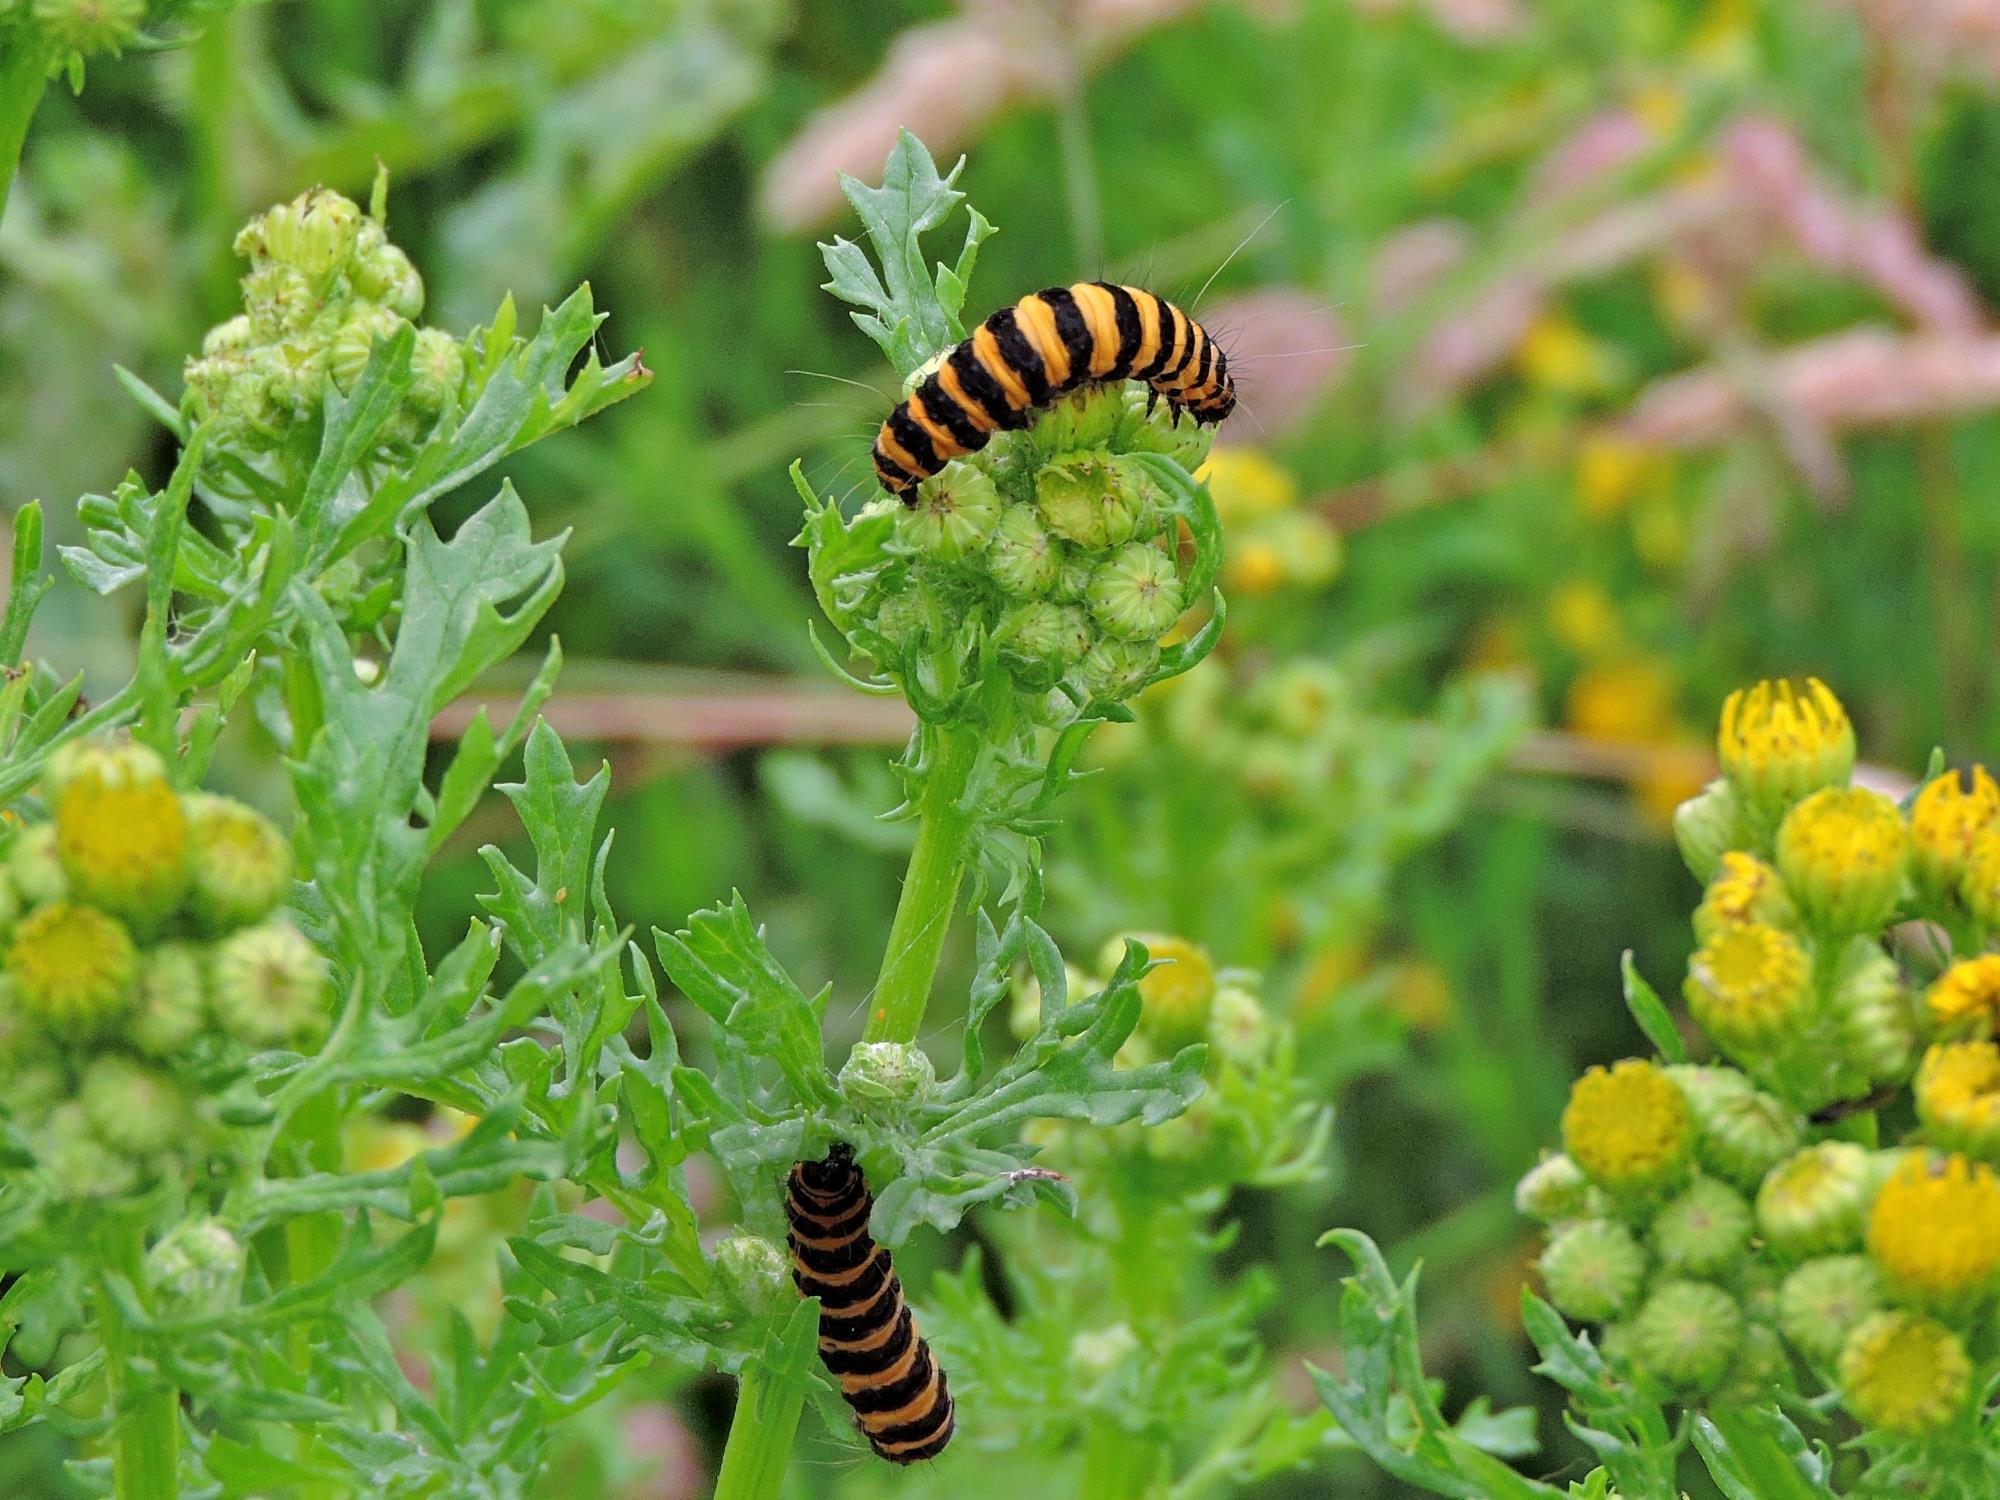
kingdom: Animalia
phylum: Arthropoda
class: Insecta
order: Lepidoptera
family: Erebidae
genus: Tyria
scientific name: Tyria jacobaeae
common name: Cinnabar
